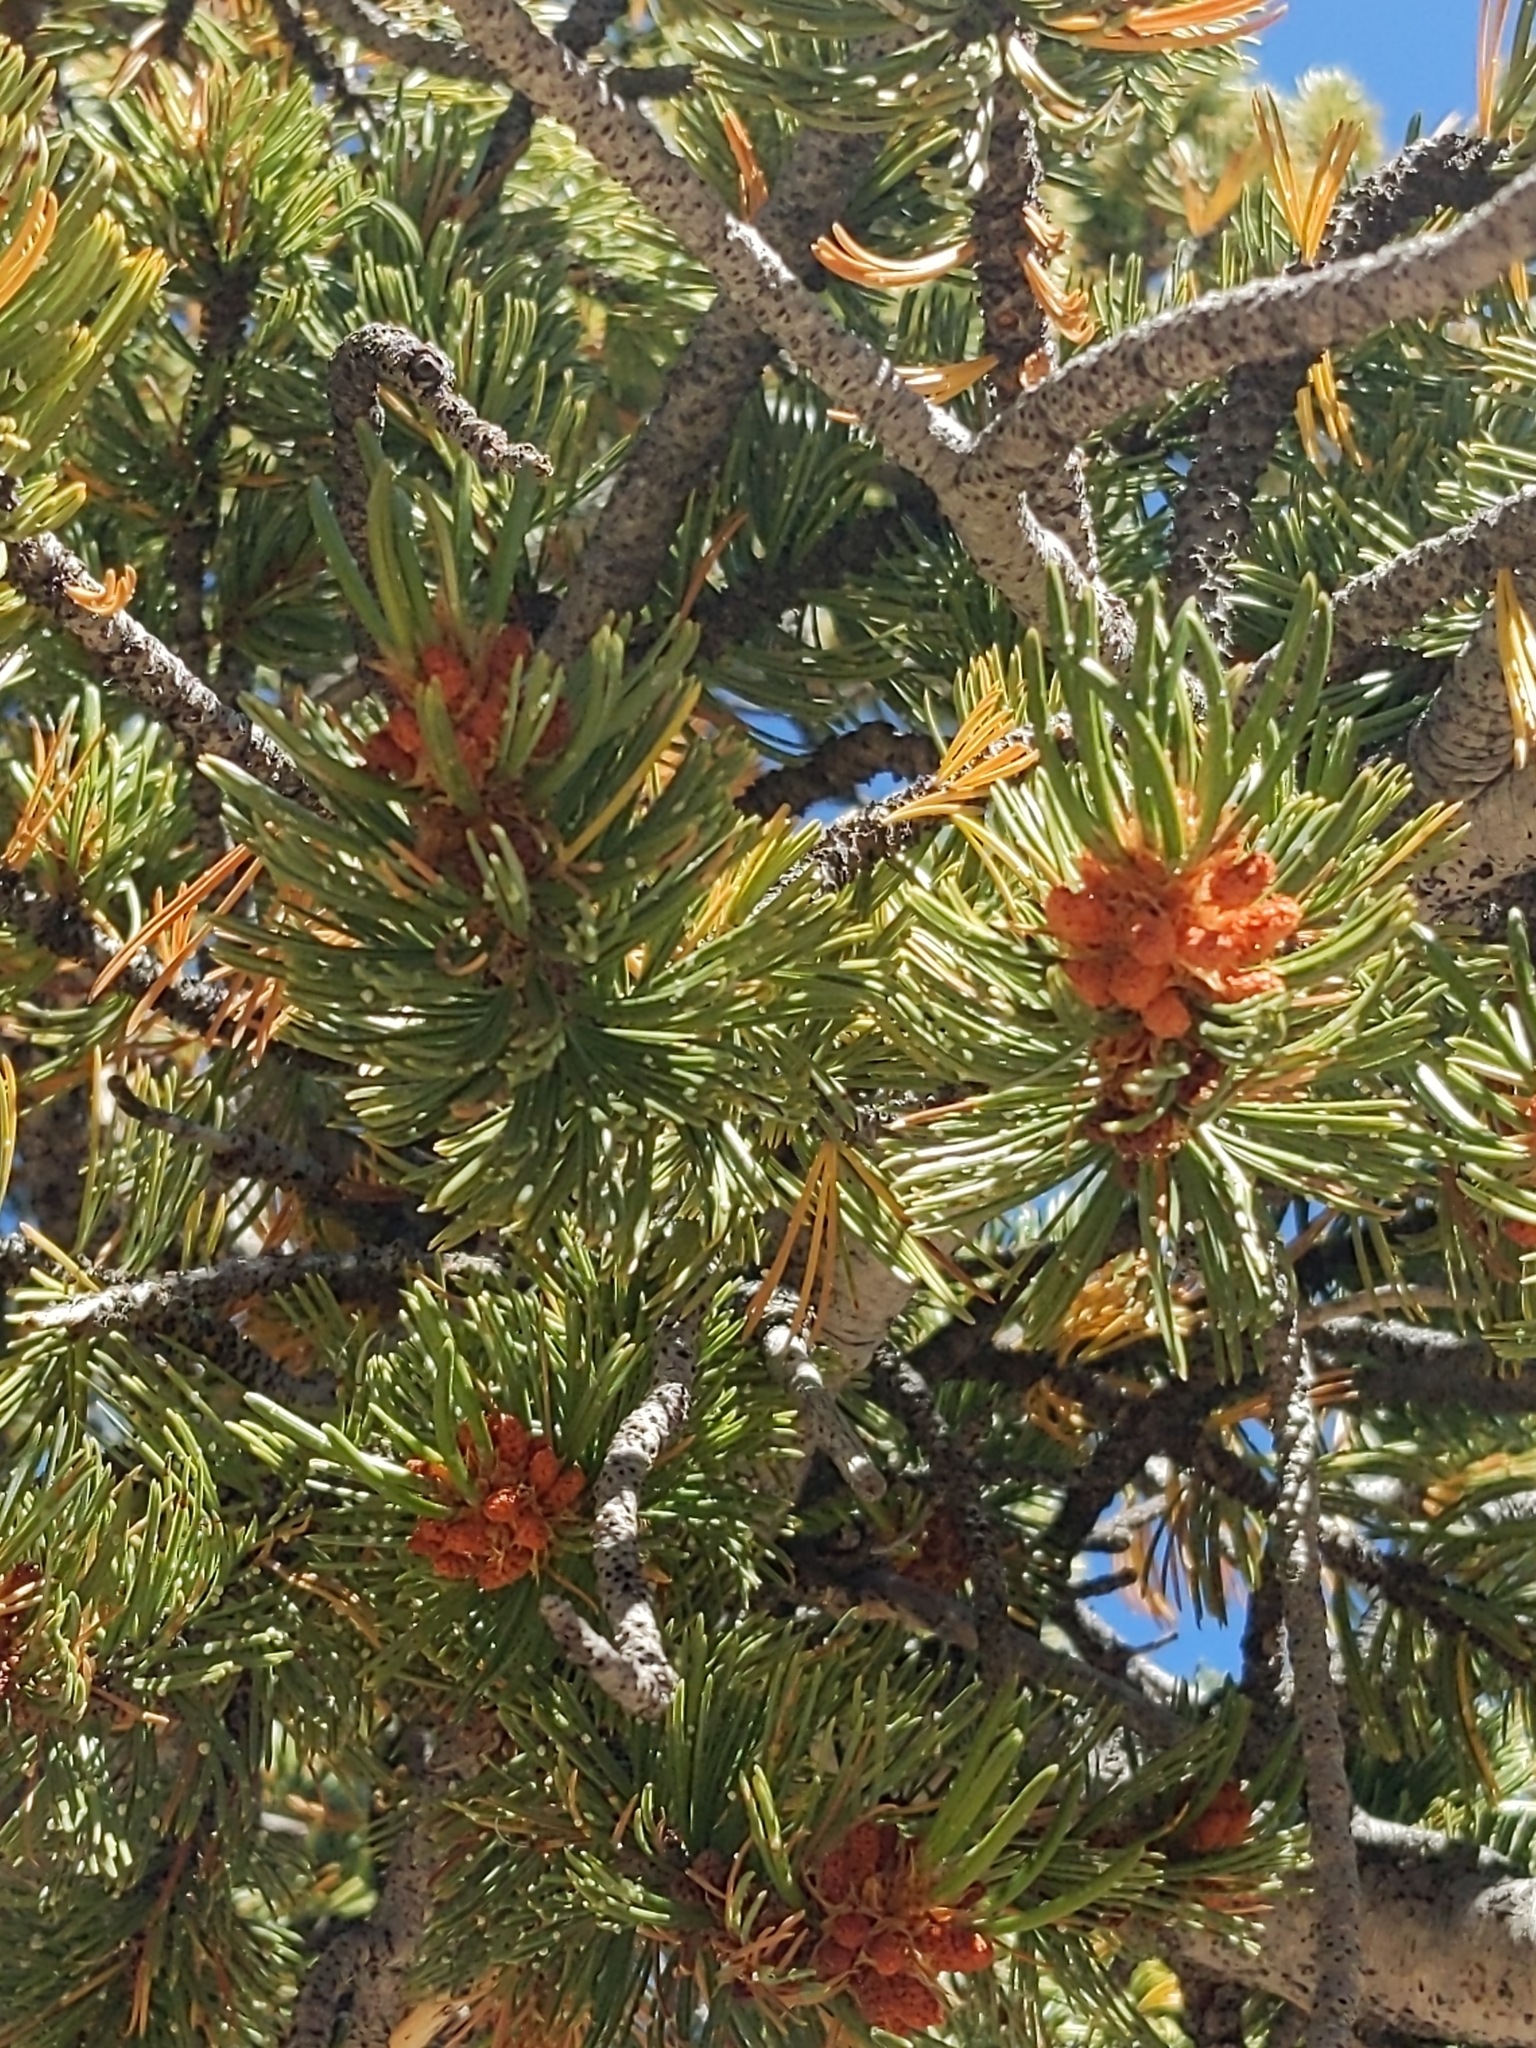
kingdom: Plantae
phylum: Tracheophyta
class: Pinopsida
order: Pinales
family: Pinaceae
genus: Pinus
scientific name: Pinus aristata
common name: Colorado bristlecone pine
